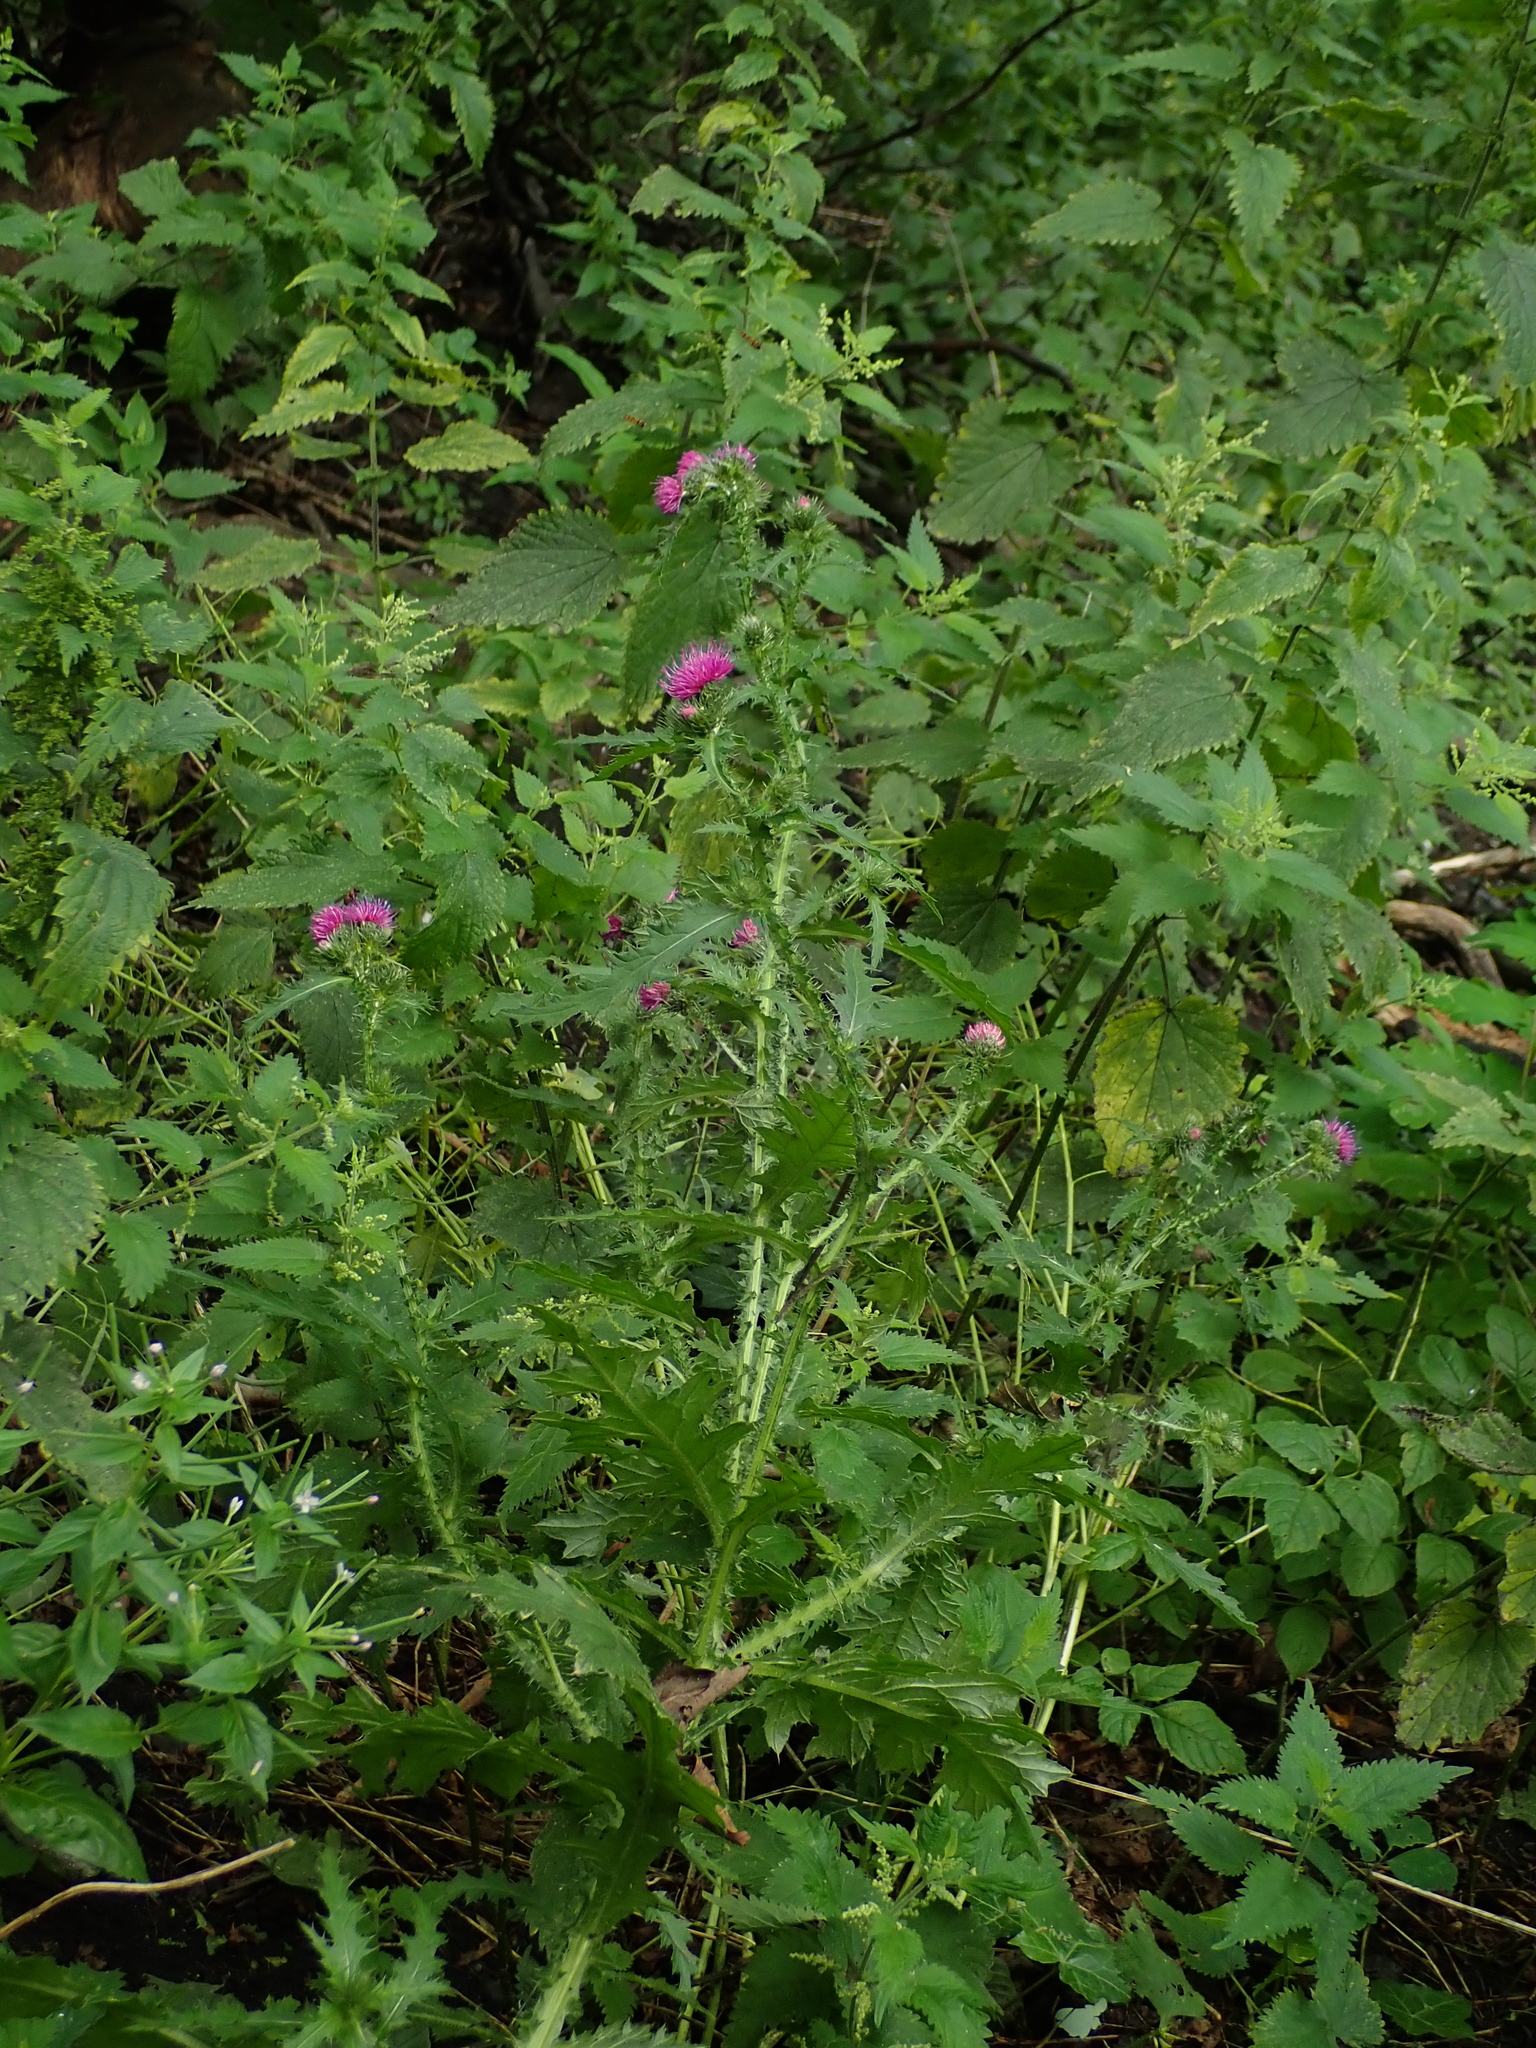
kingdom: Plantae
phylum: Tracheophyta
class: Magnoliopsida
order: Asterales
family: Asteraceae
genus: Carduus
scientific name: Carduus crispus
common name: Welted thistle
